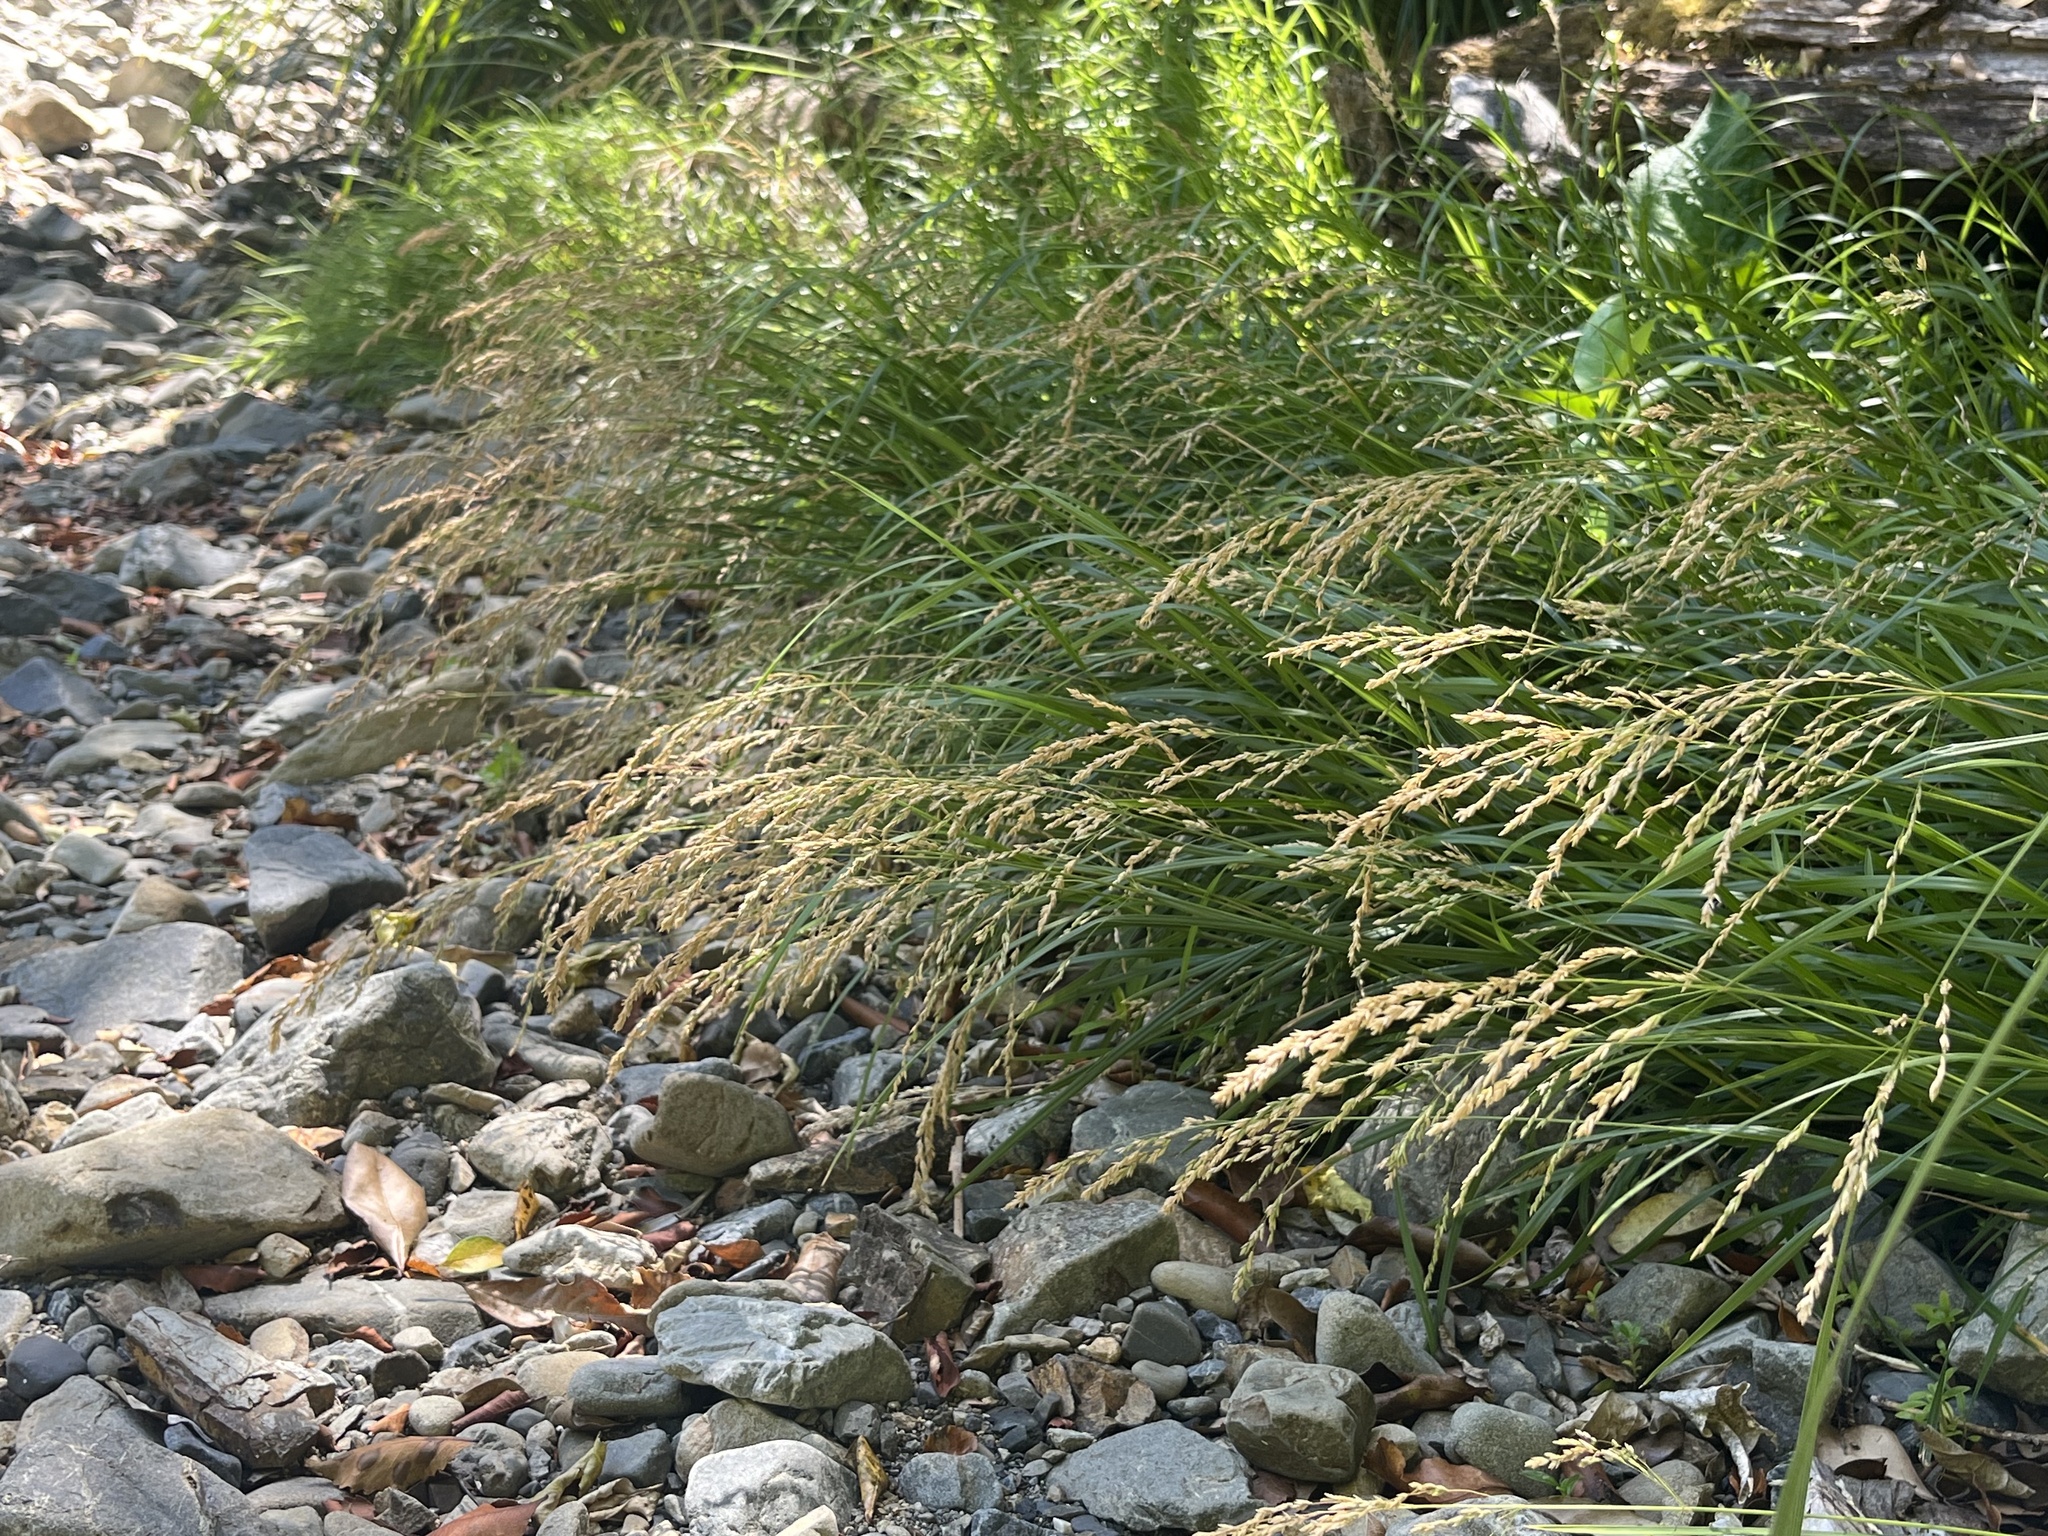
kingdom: Plantae
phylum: Tracheophyta
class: Liliopsida
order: Poales
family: Poaceae
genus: Poa
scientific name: Poa anceps
